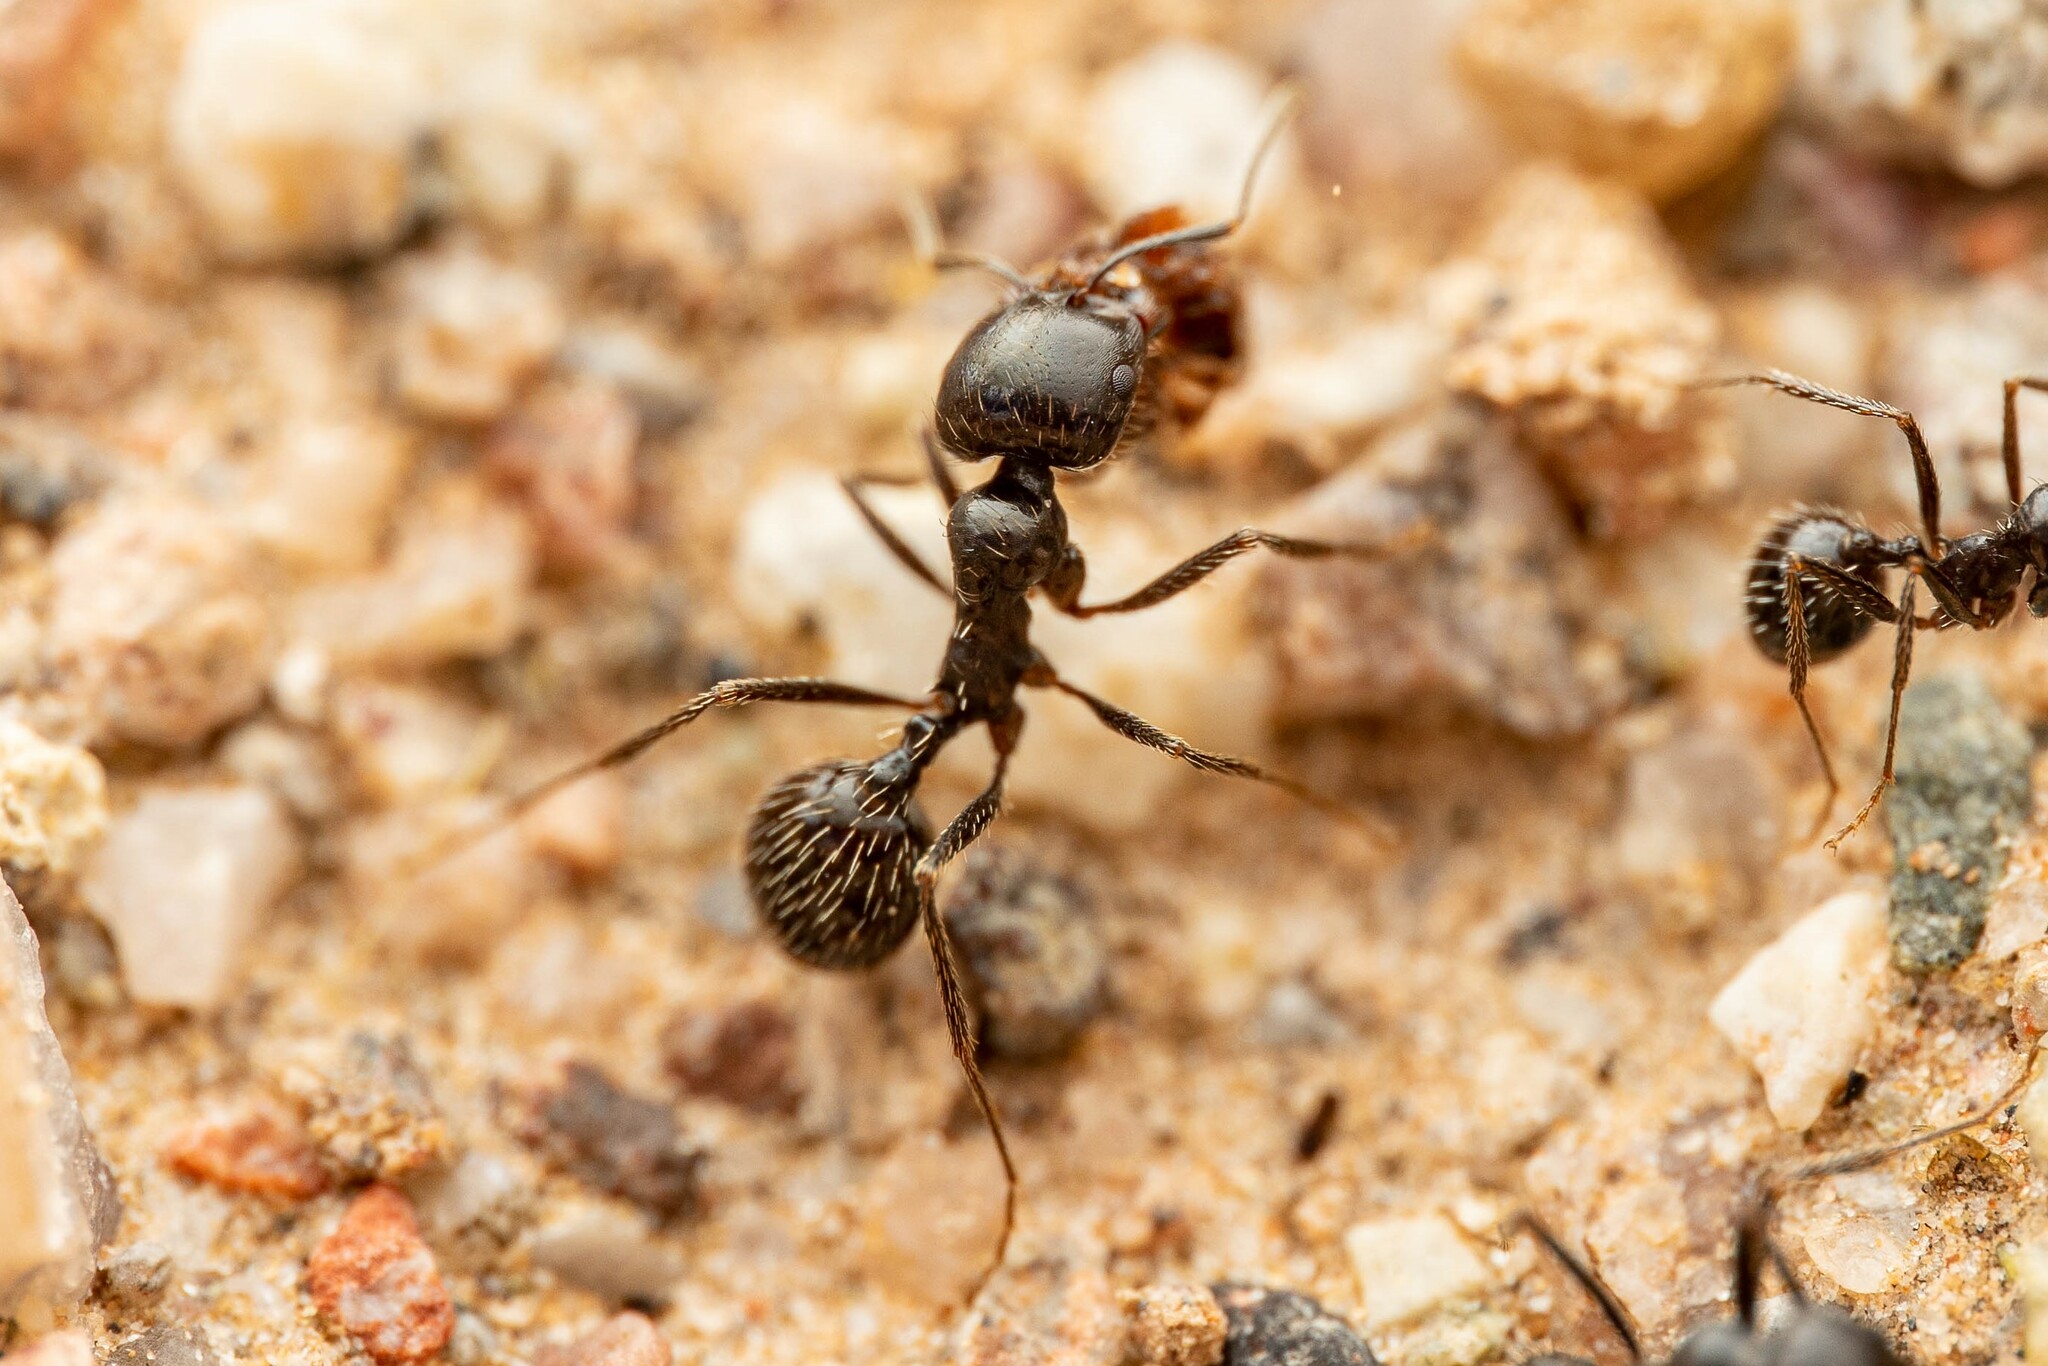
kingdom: Animalia
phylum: Arthropoda
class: Insecta
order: Hymenoptera
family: Formicidae
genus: Messor
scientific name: Messor pergandei
